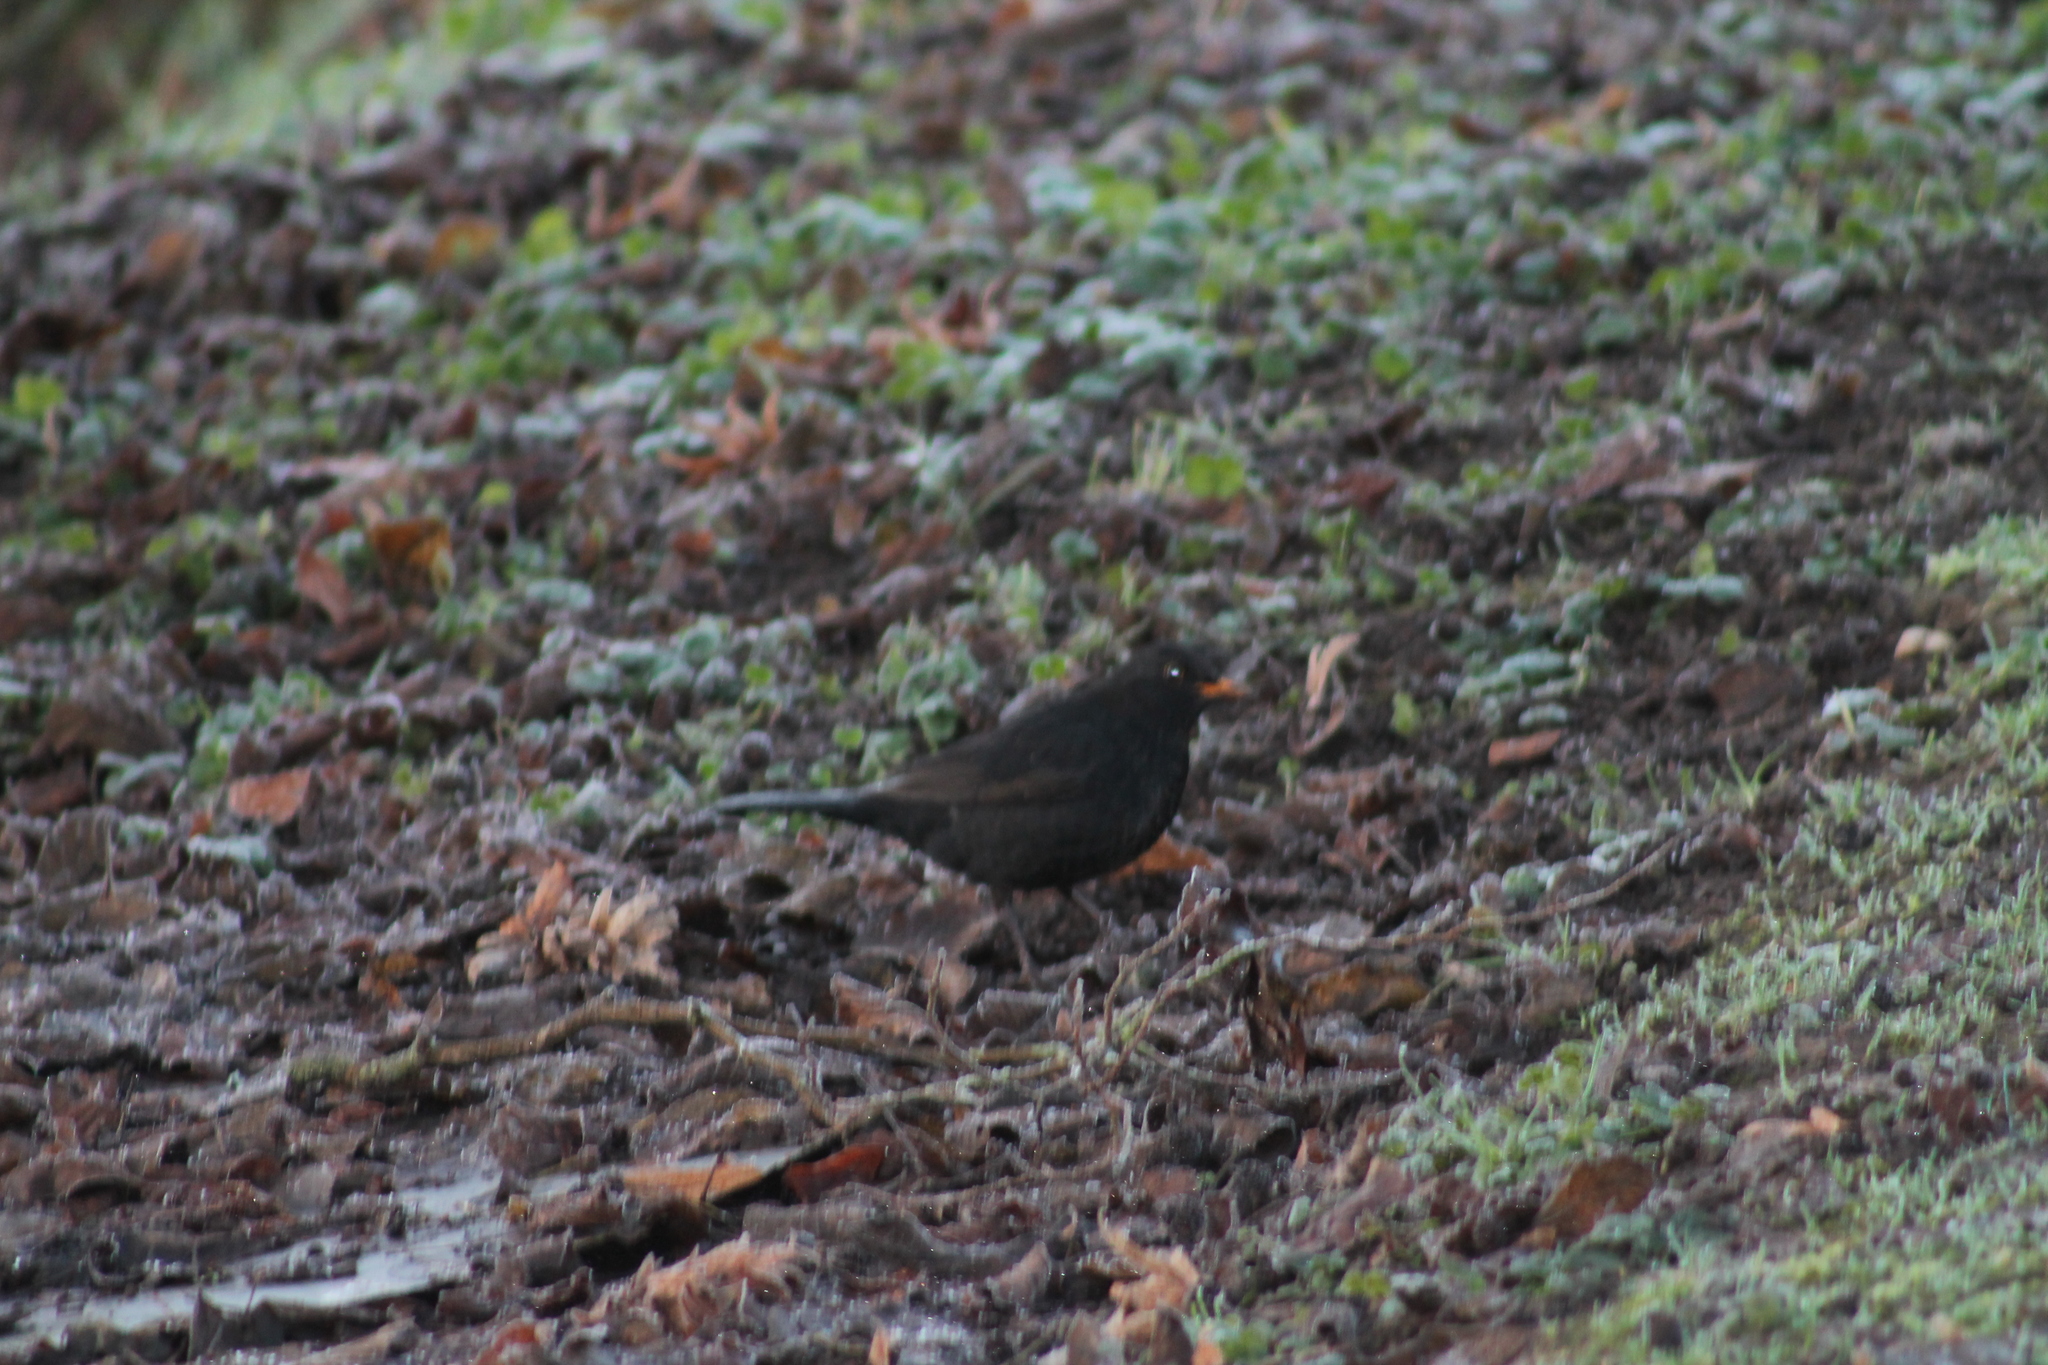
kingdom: Animalia
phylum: Chordata
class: Aves
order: Passeriformes
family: Turdidae
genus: Turdus
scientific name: Turdus merula
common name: Common blackbird
